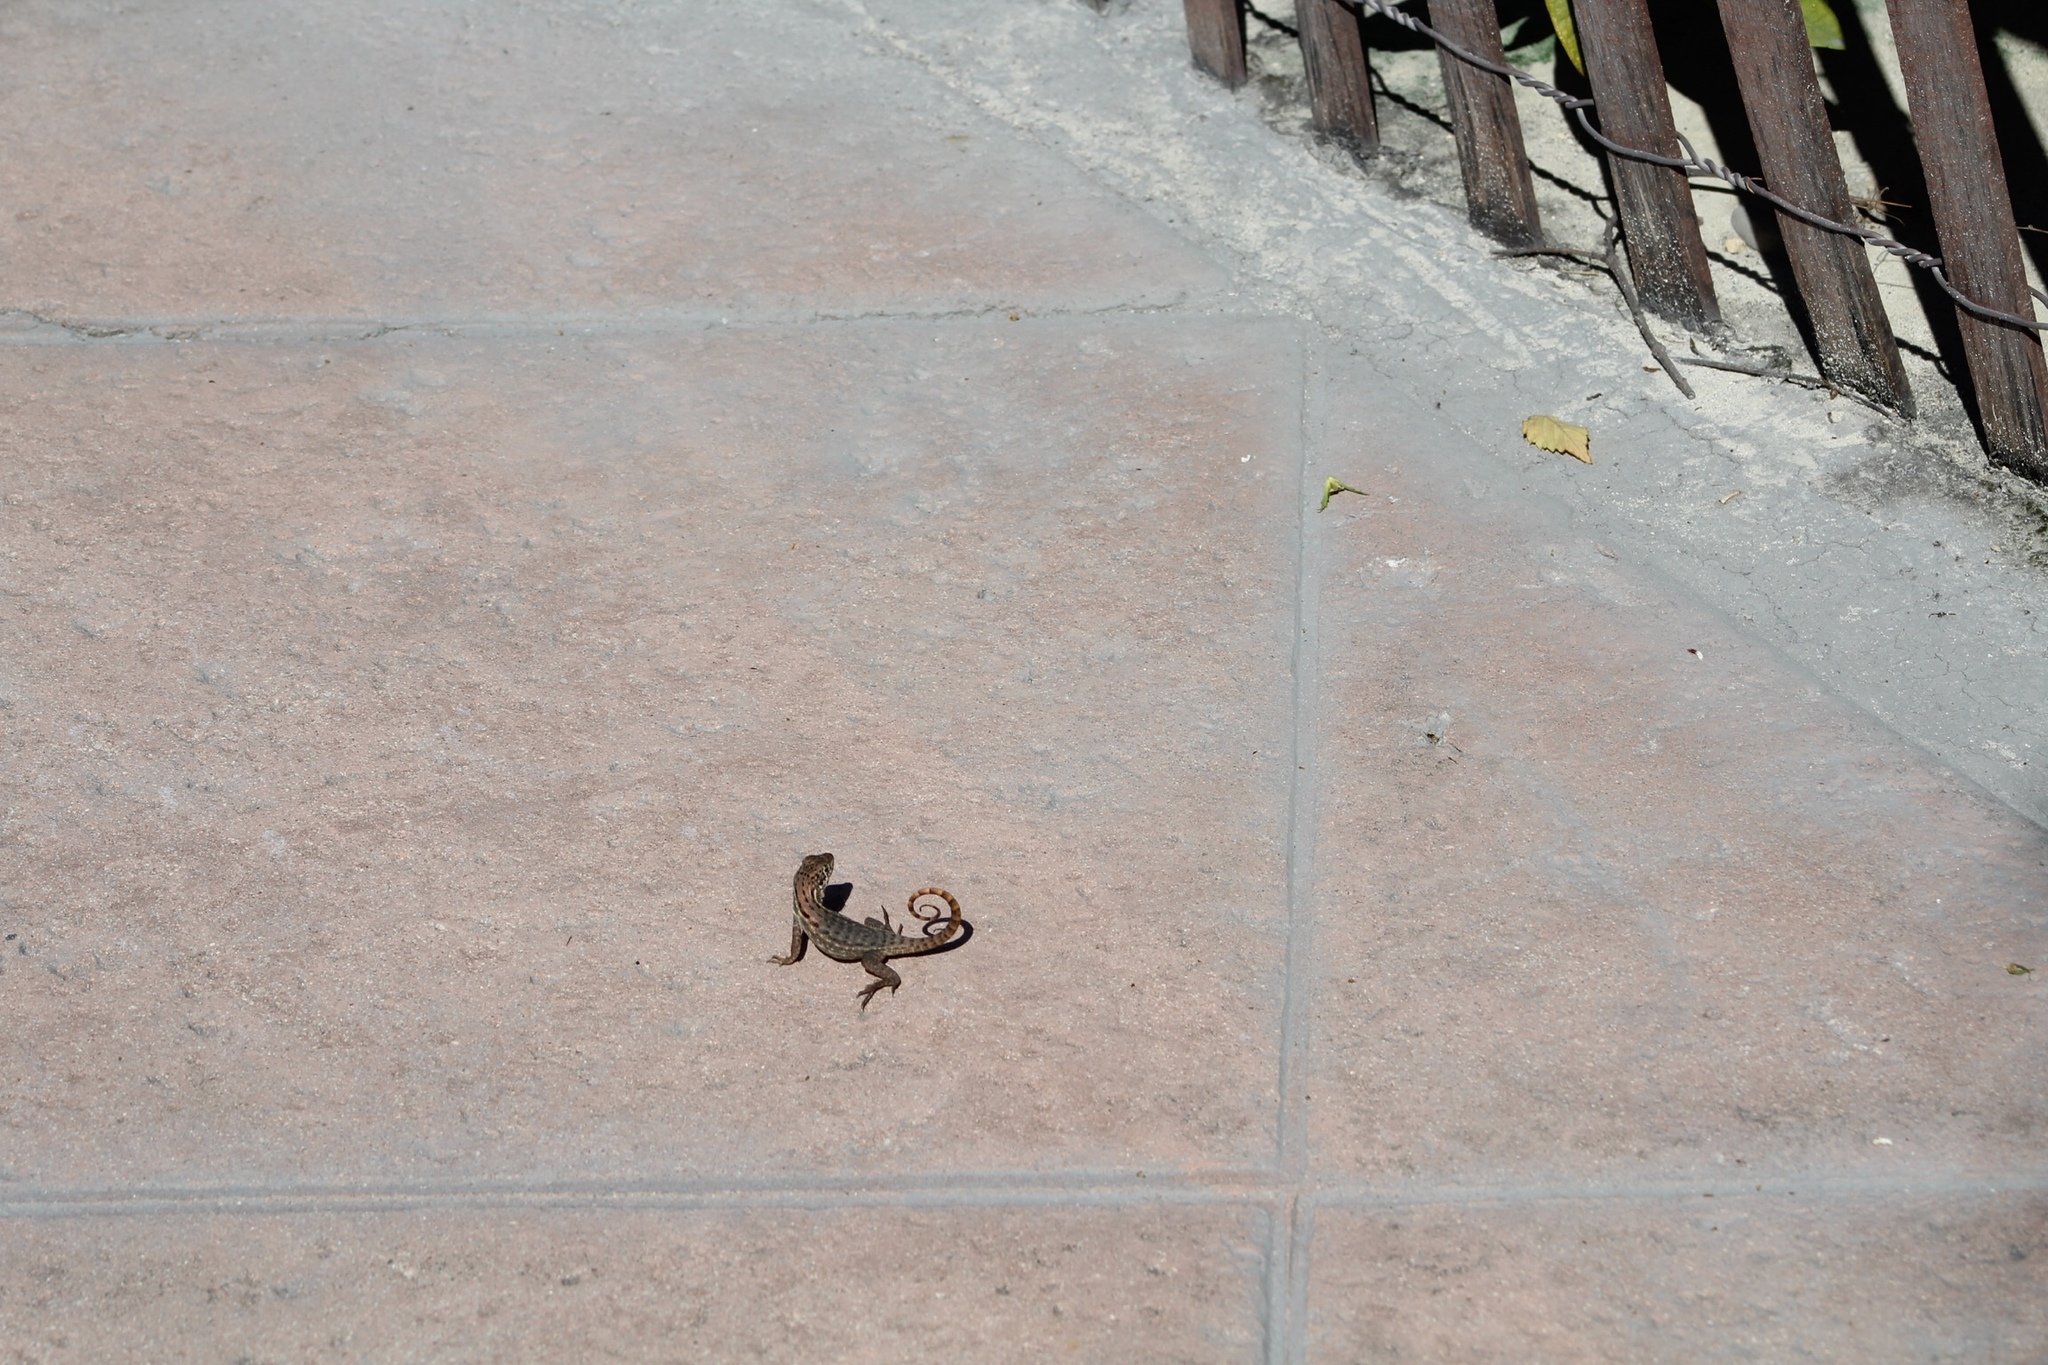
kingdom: Animalia
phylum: Chordata
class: Squamata
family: Leiocephalidae
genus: Leiocephalus
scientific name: Leiocephalus carinatus
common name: Northern curly-tailed lizard
